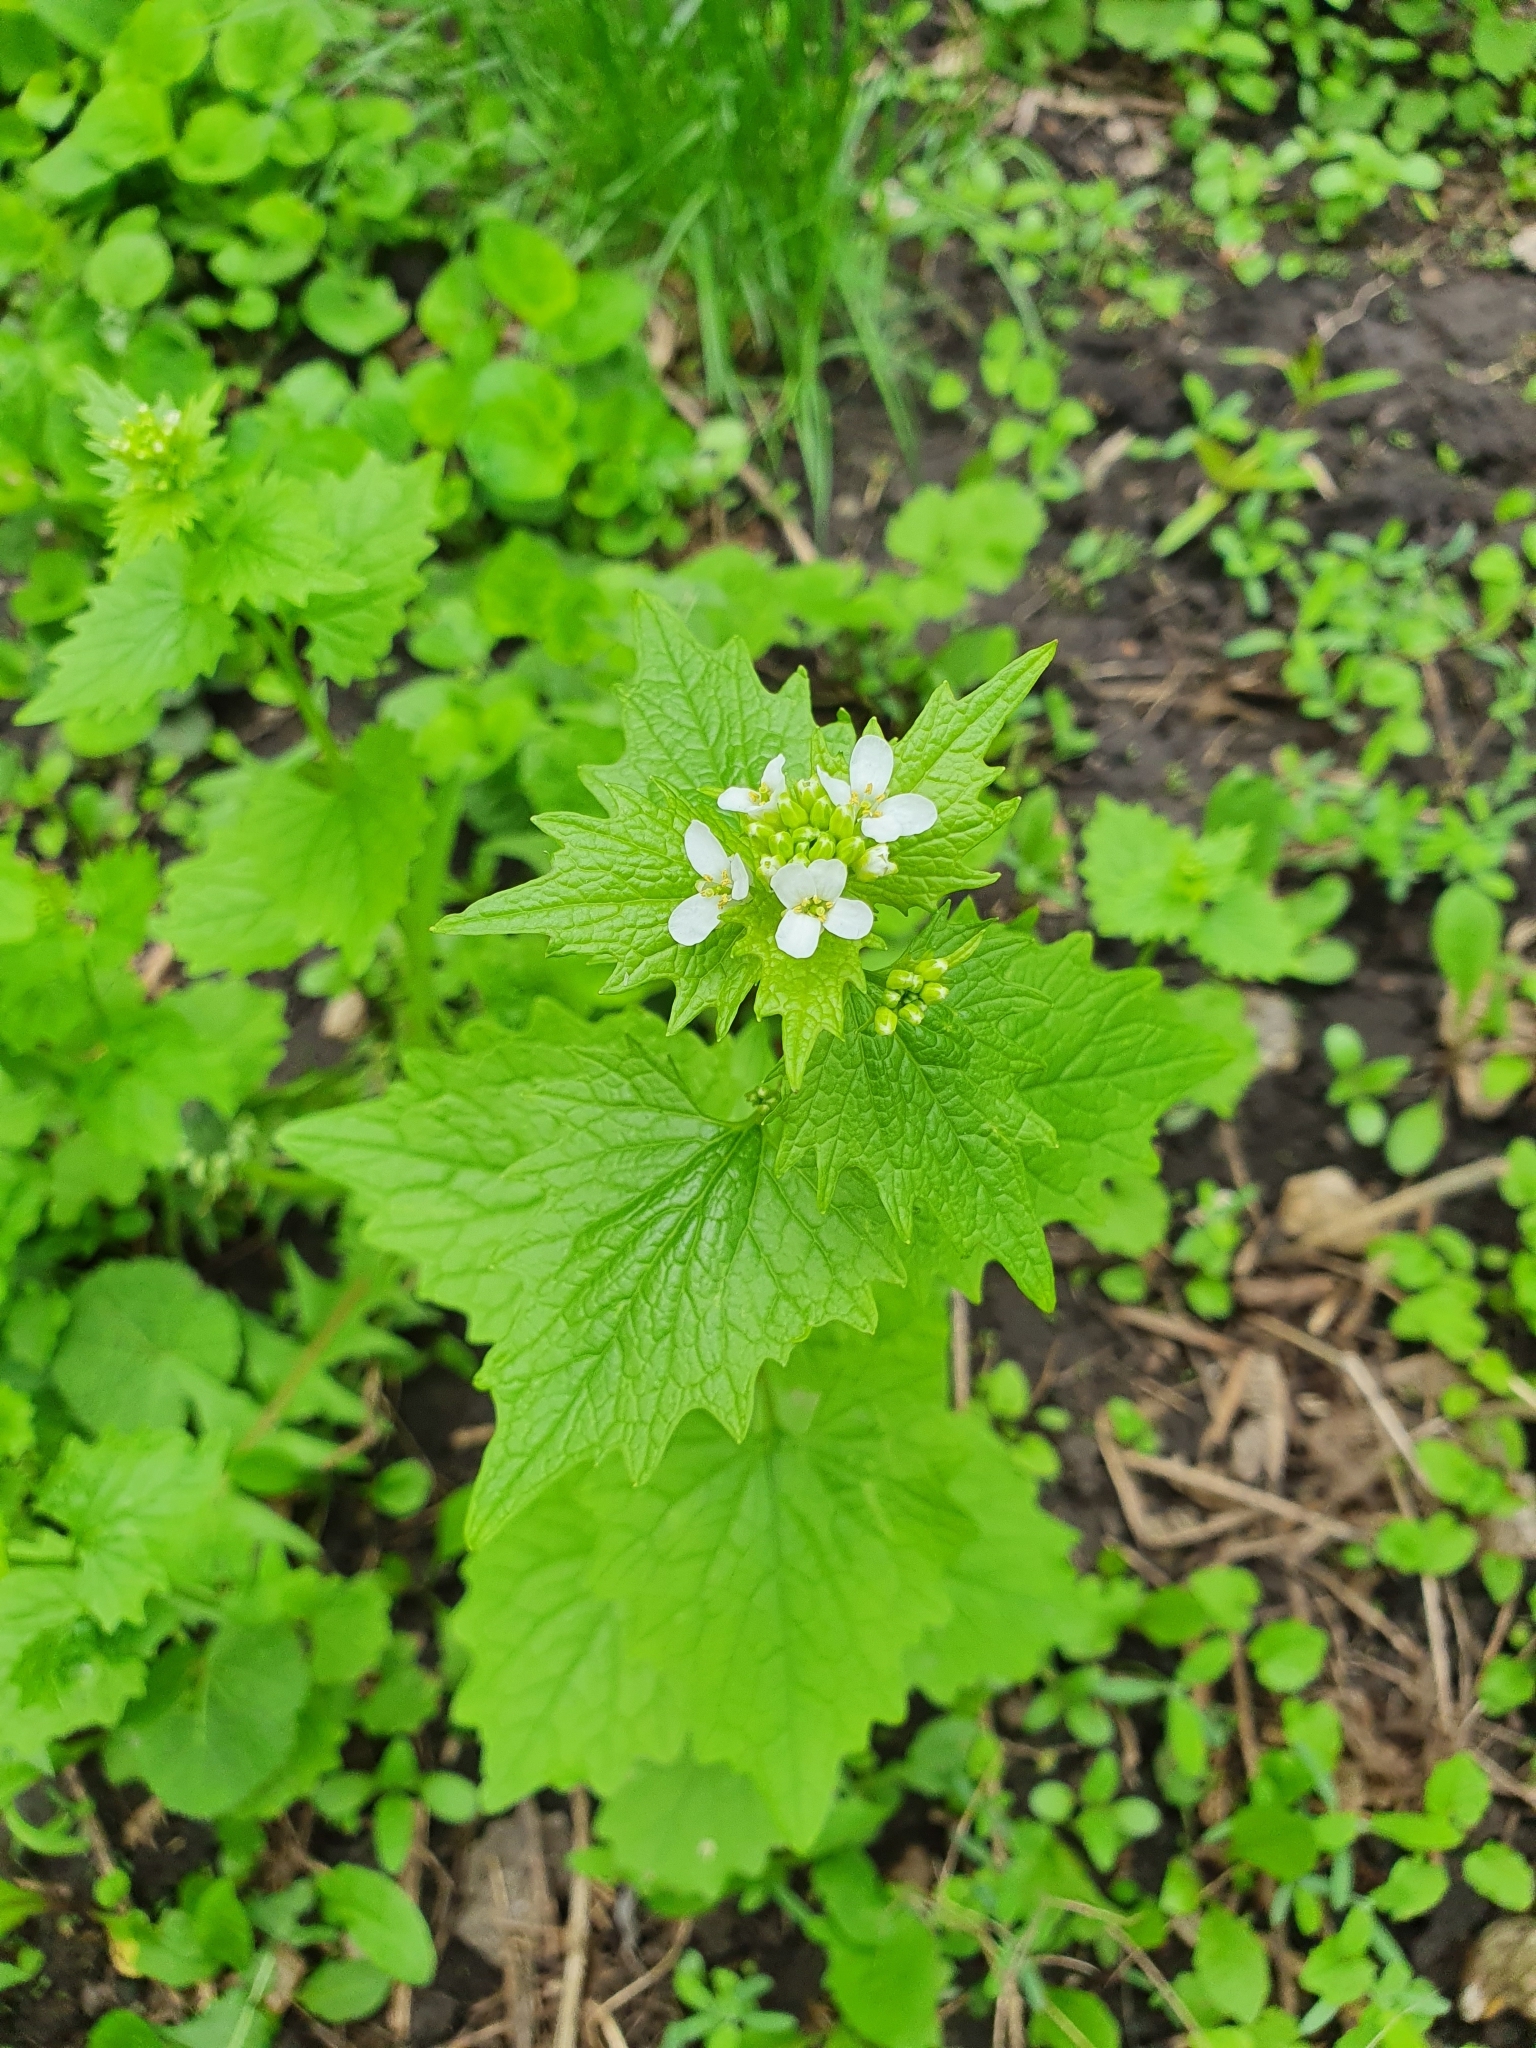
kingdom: Plantae
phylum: Tracheophyta
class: Magnoliopsida
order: Brassicales
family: Brassicaceae
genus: Alliaria
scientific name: Alliaria petiolata
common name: Garlic mustard
